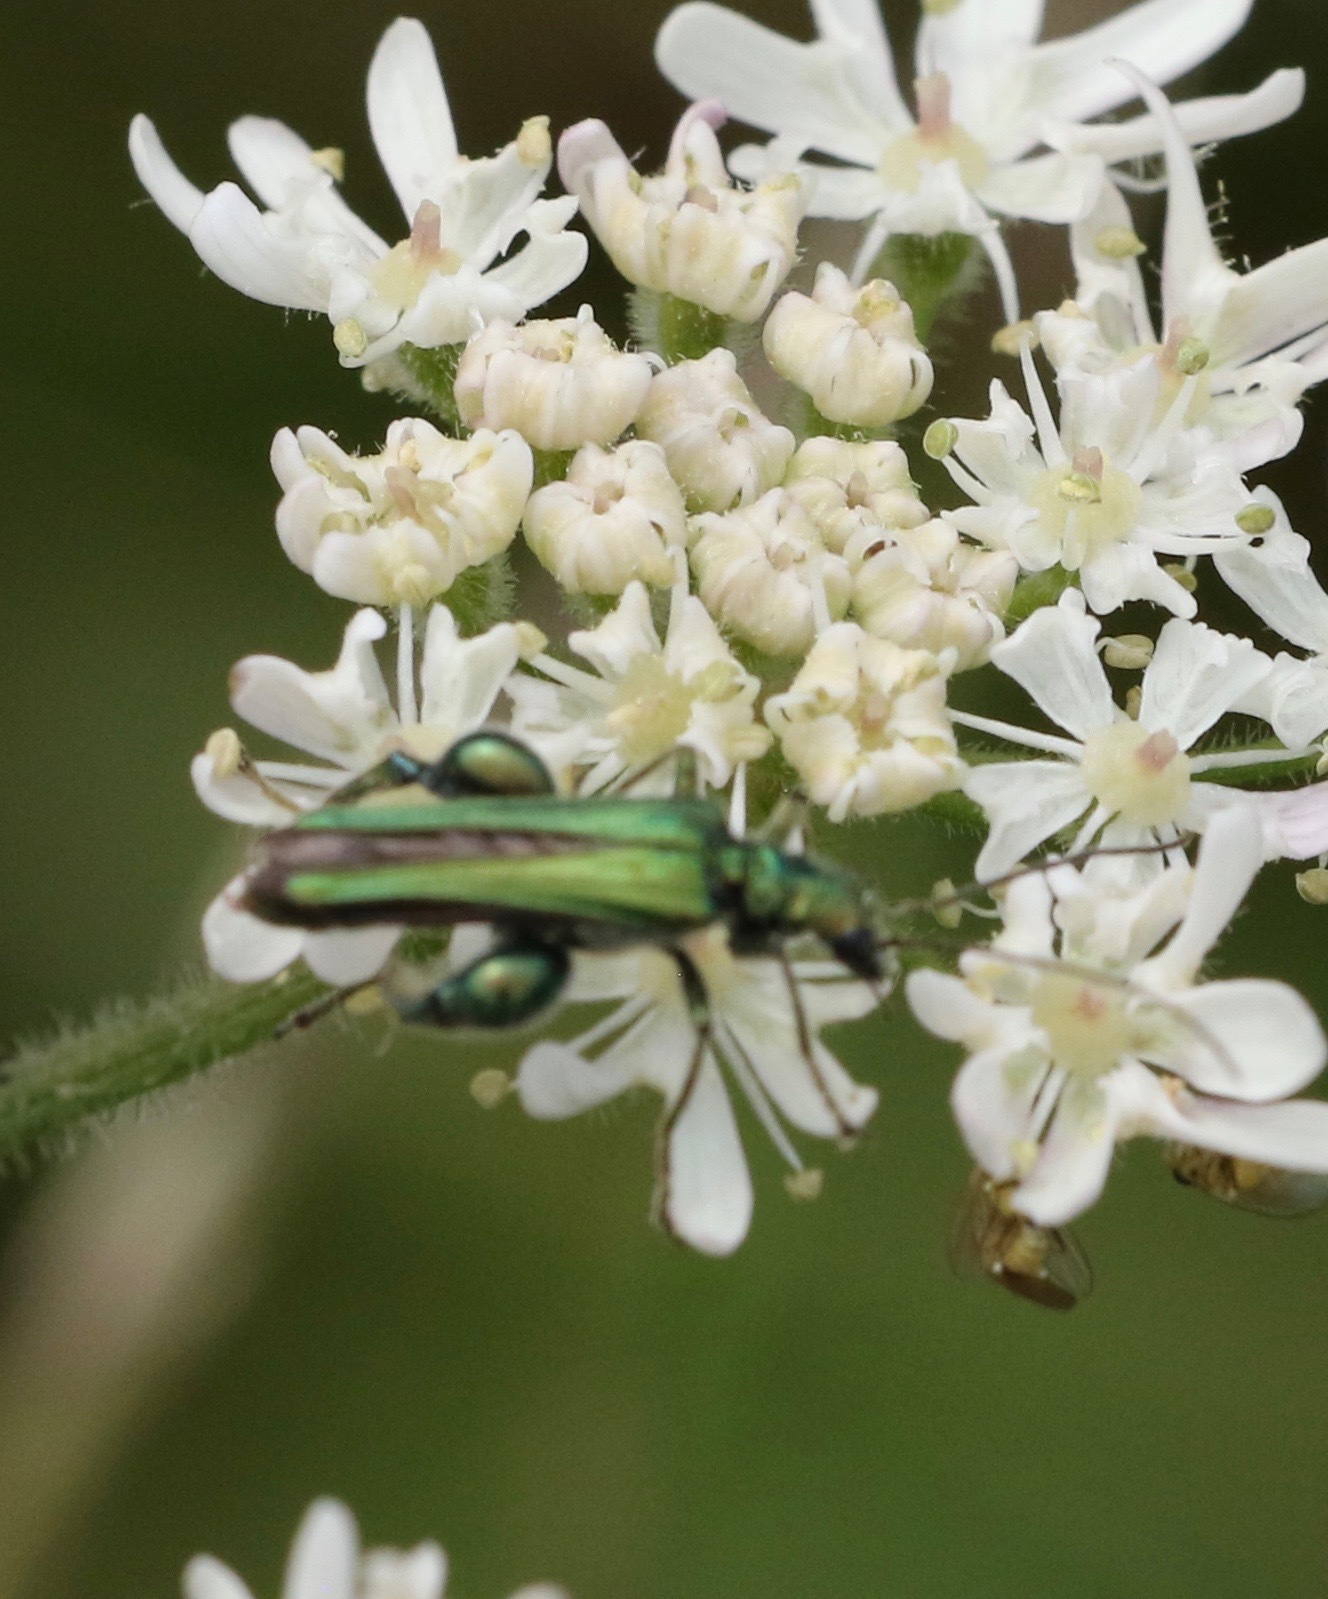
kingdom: Animalia
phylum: Arthropoda
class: Insecta
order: Coleoptera
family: Oedemeridae
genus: Oedemera
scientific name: Oedemera nobilis
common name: Swollen-thighed beetle
